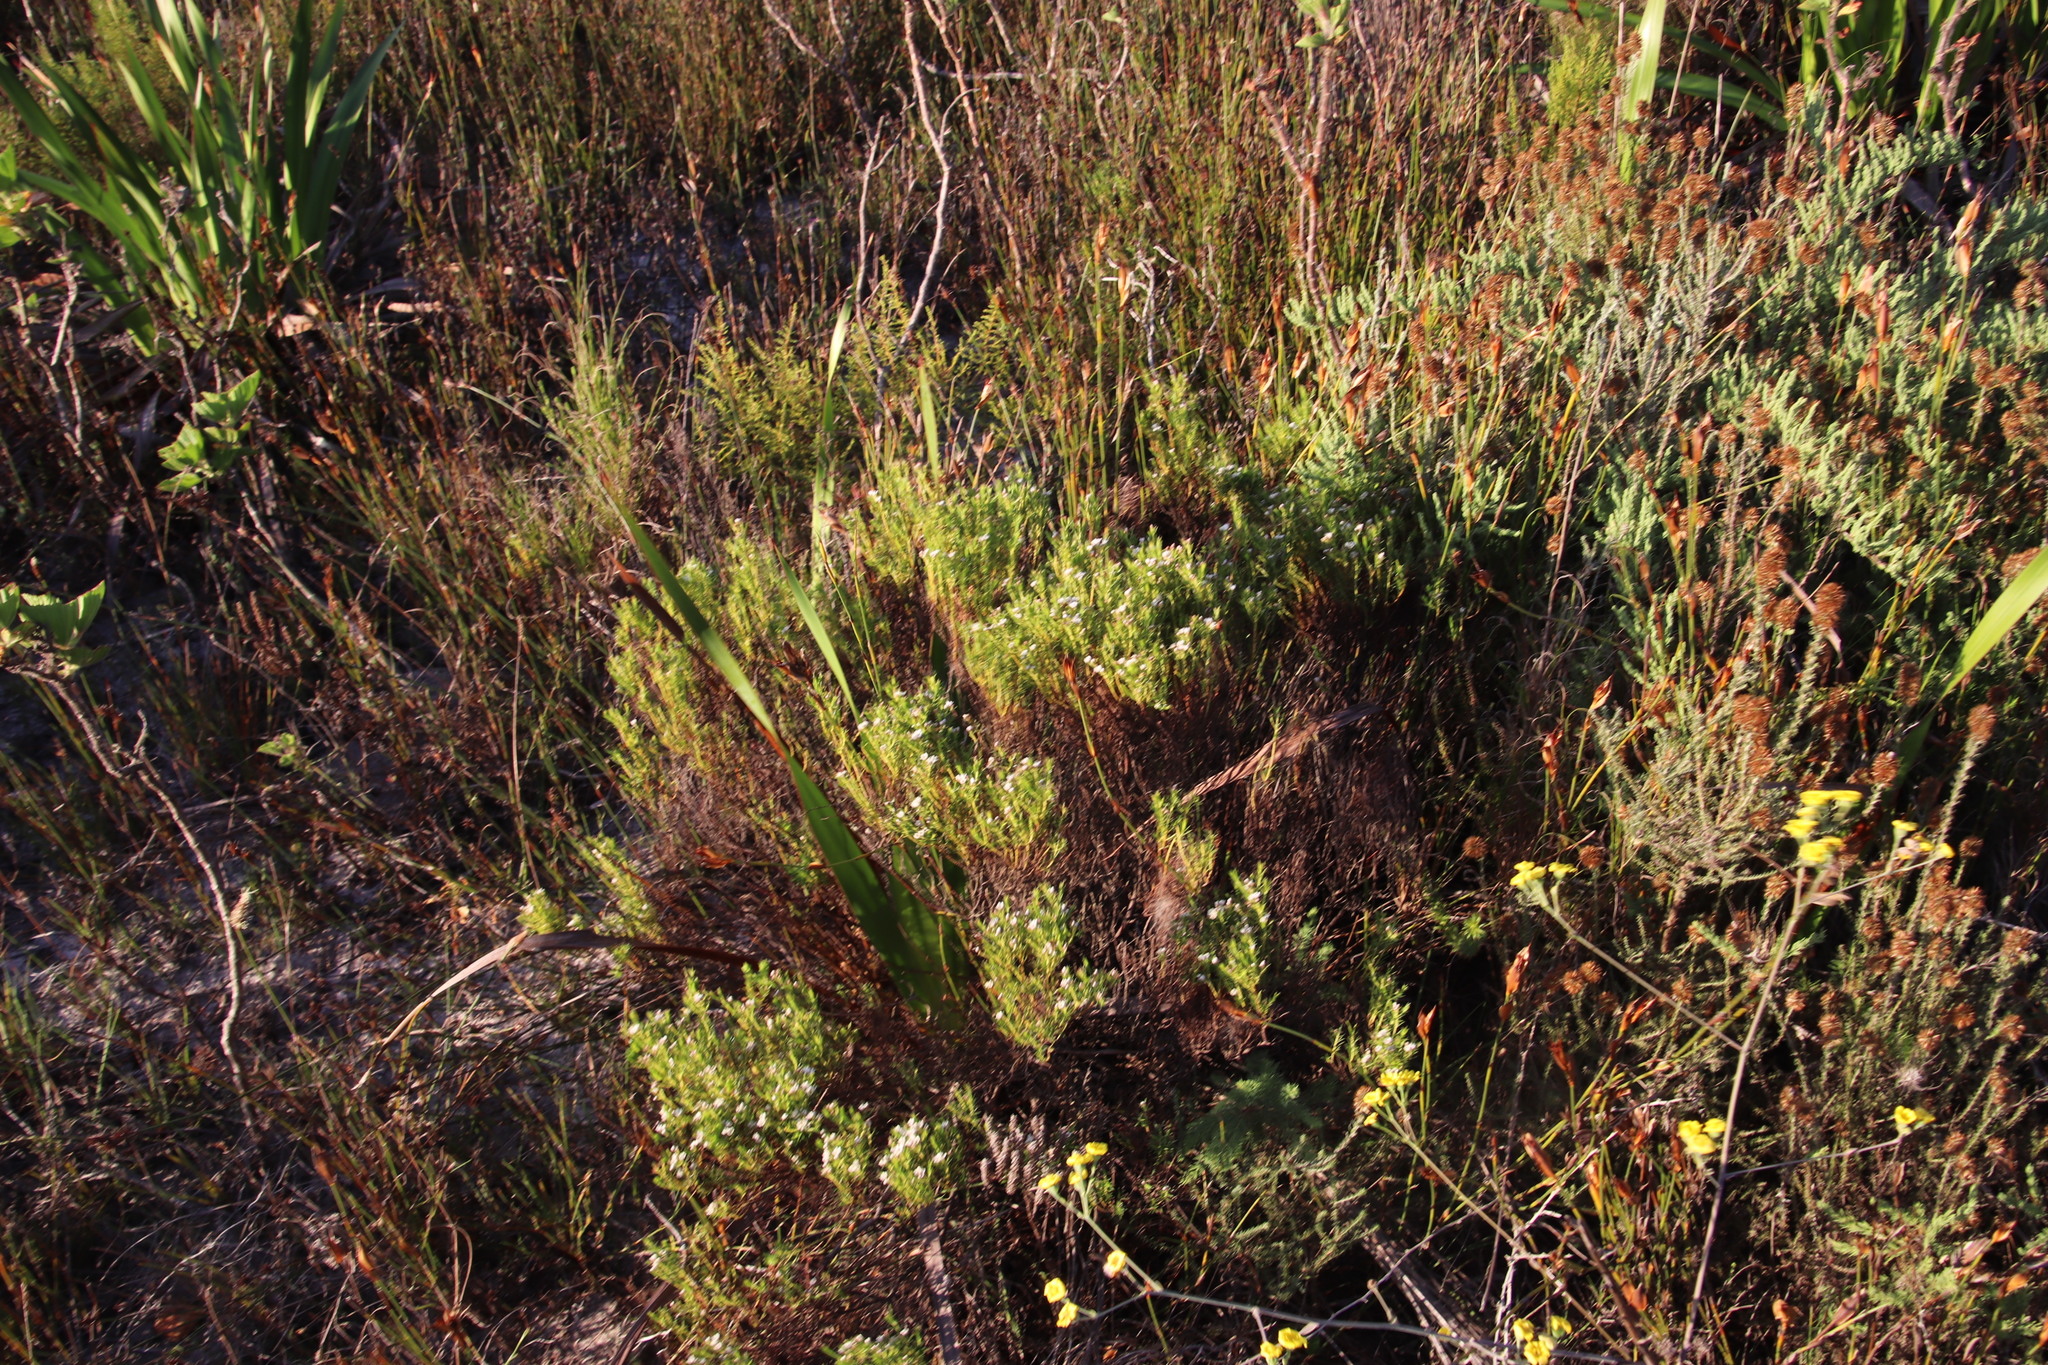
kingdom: Plantae
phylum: Tracheophyta
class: Magnoliopsida
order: Sapindales
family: Rutaceae
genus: Diosma
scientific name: Diosma hirsuta
